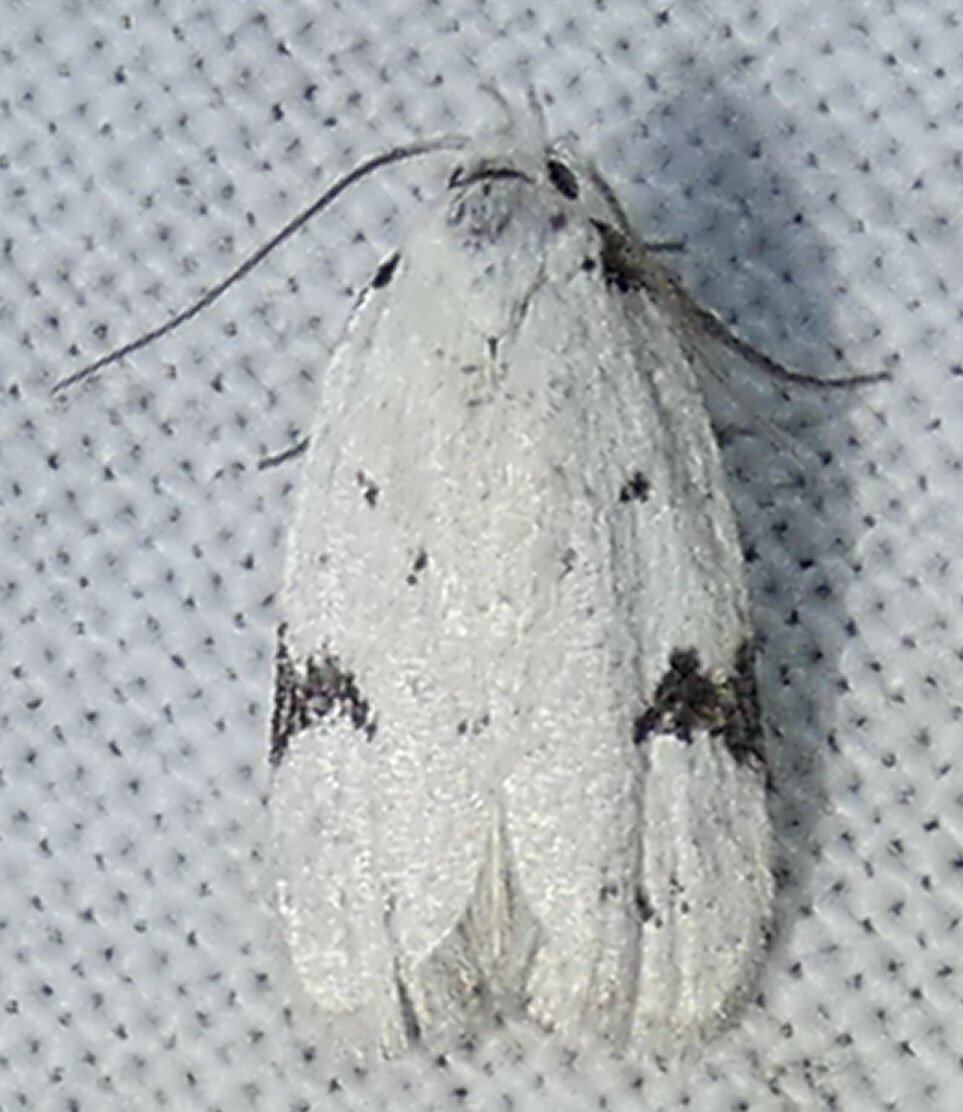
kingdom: Animalia
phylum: Arthropoda
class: Insecta
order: Lepidoptera
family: Oecophoridae
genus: Inga
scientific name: Inga sparsiciliella
